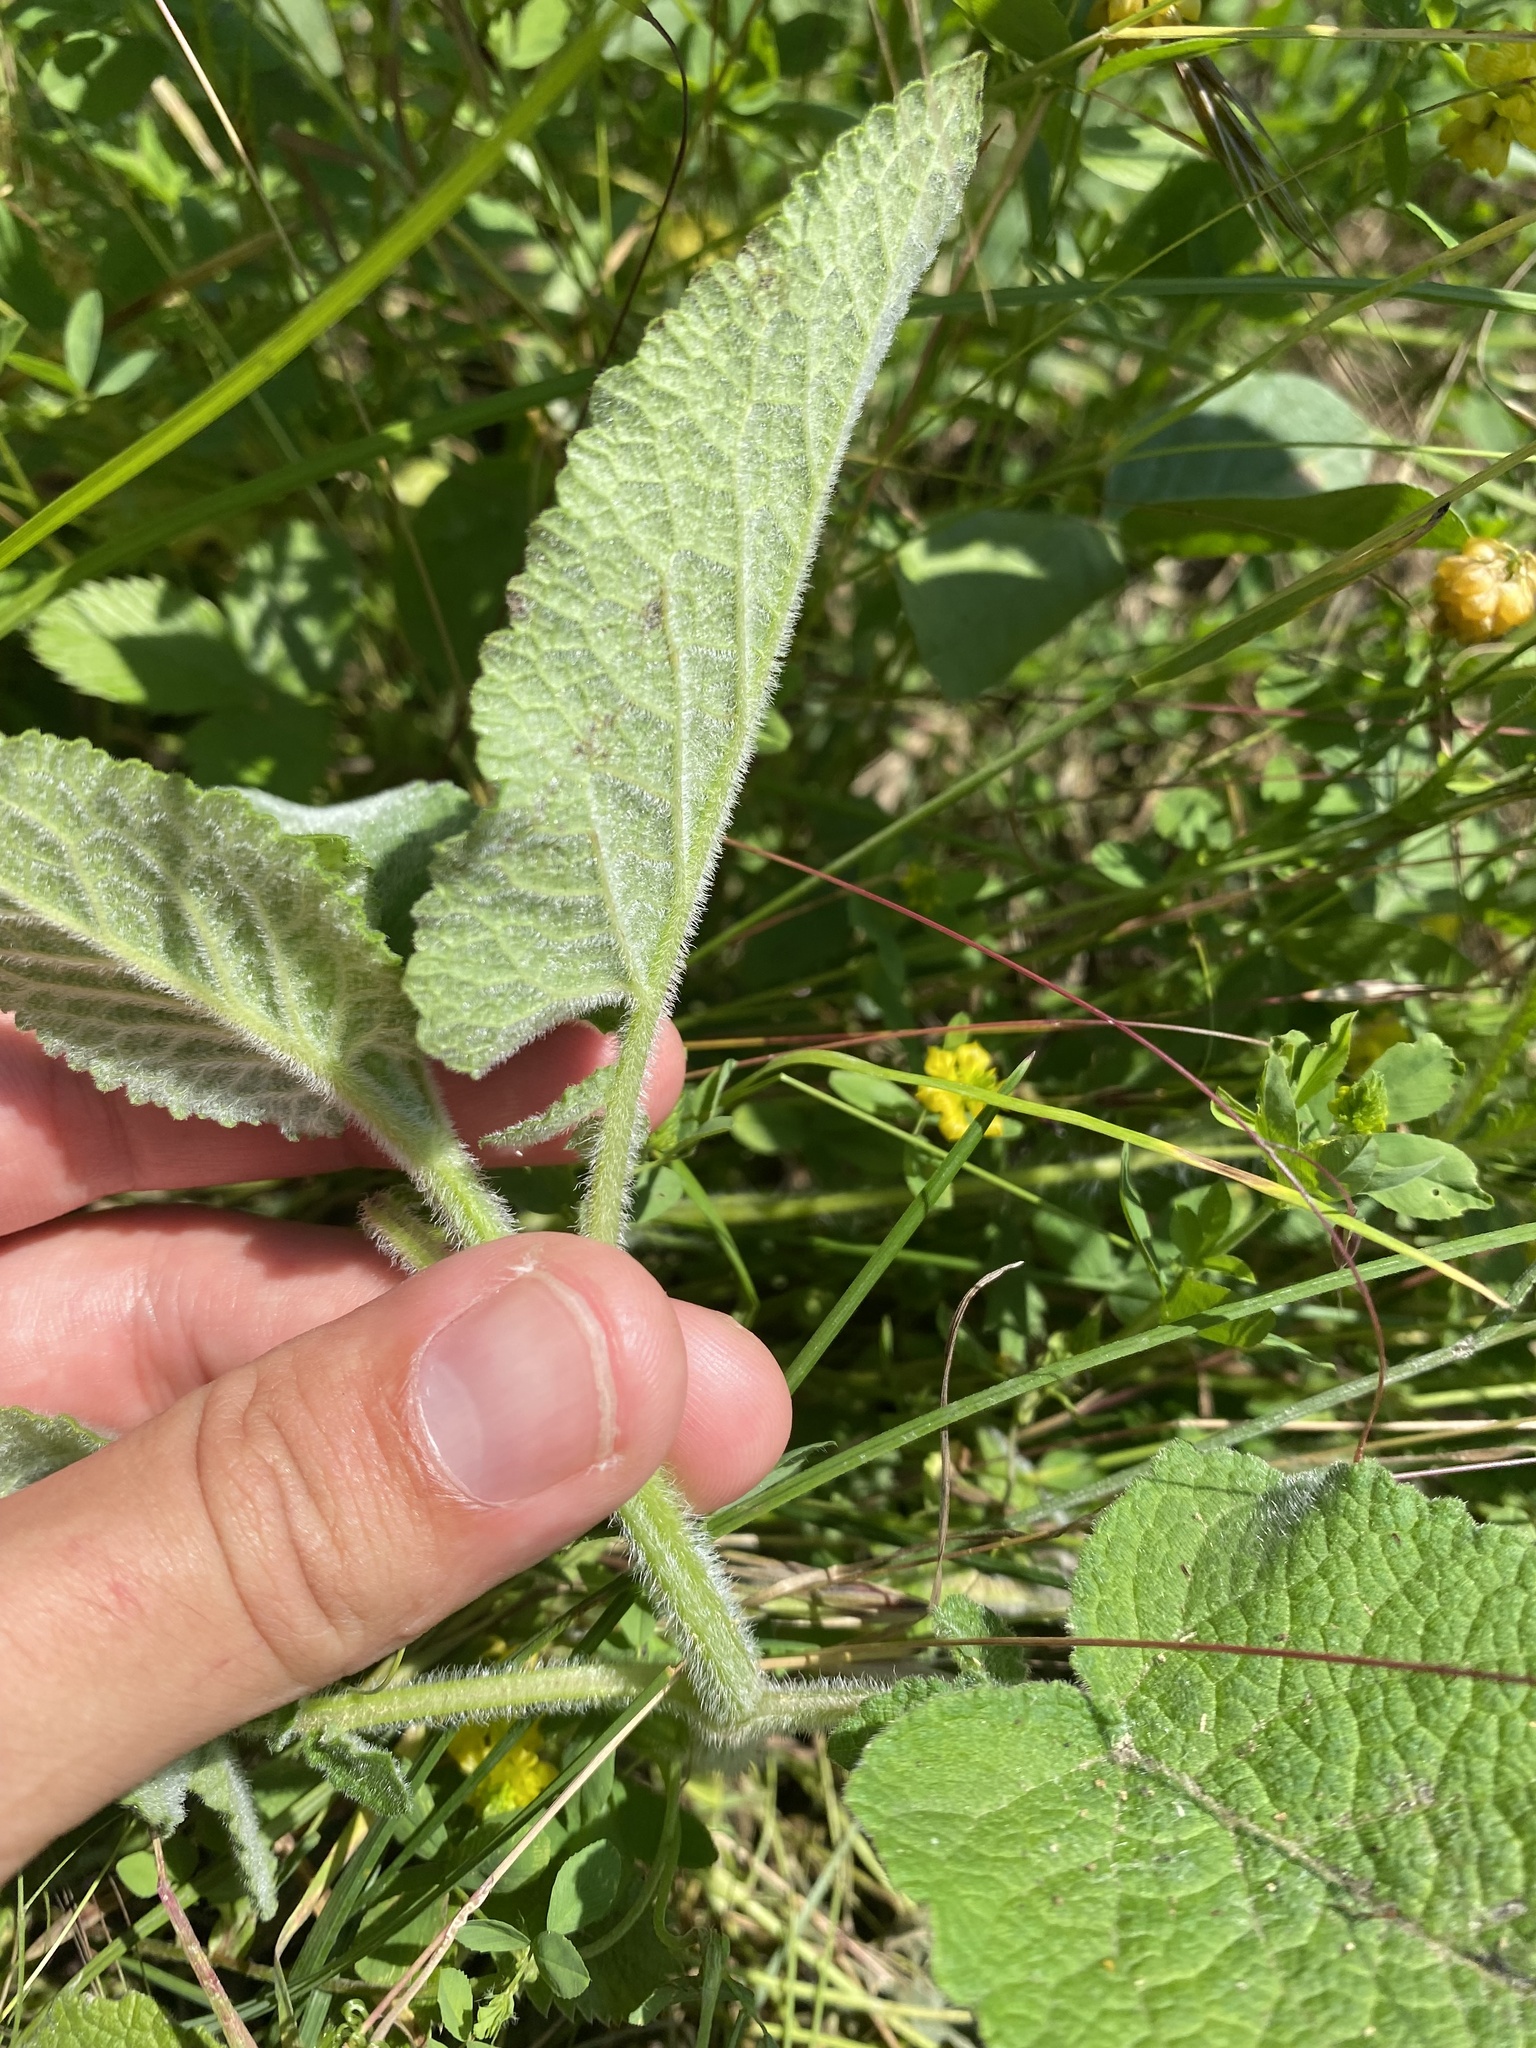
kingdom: Plantae
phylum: Tracheophyta
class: Magnoliopsida
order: Lamiales
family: Lamiaceae
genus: Salvia
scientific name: Salvia verticillata
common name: Whorled clary
